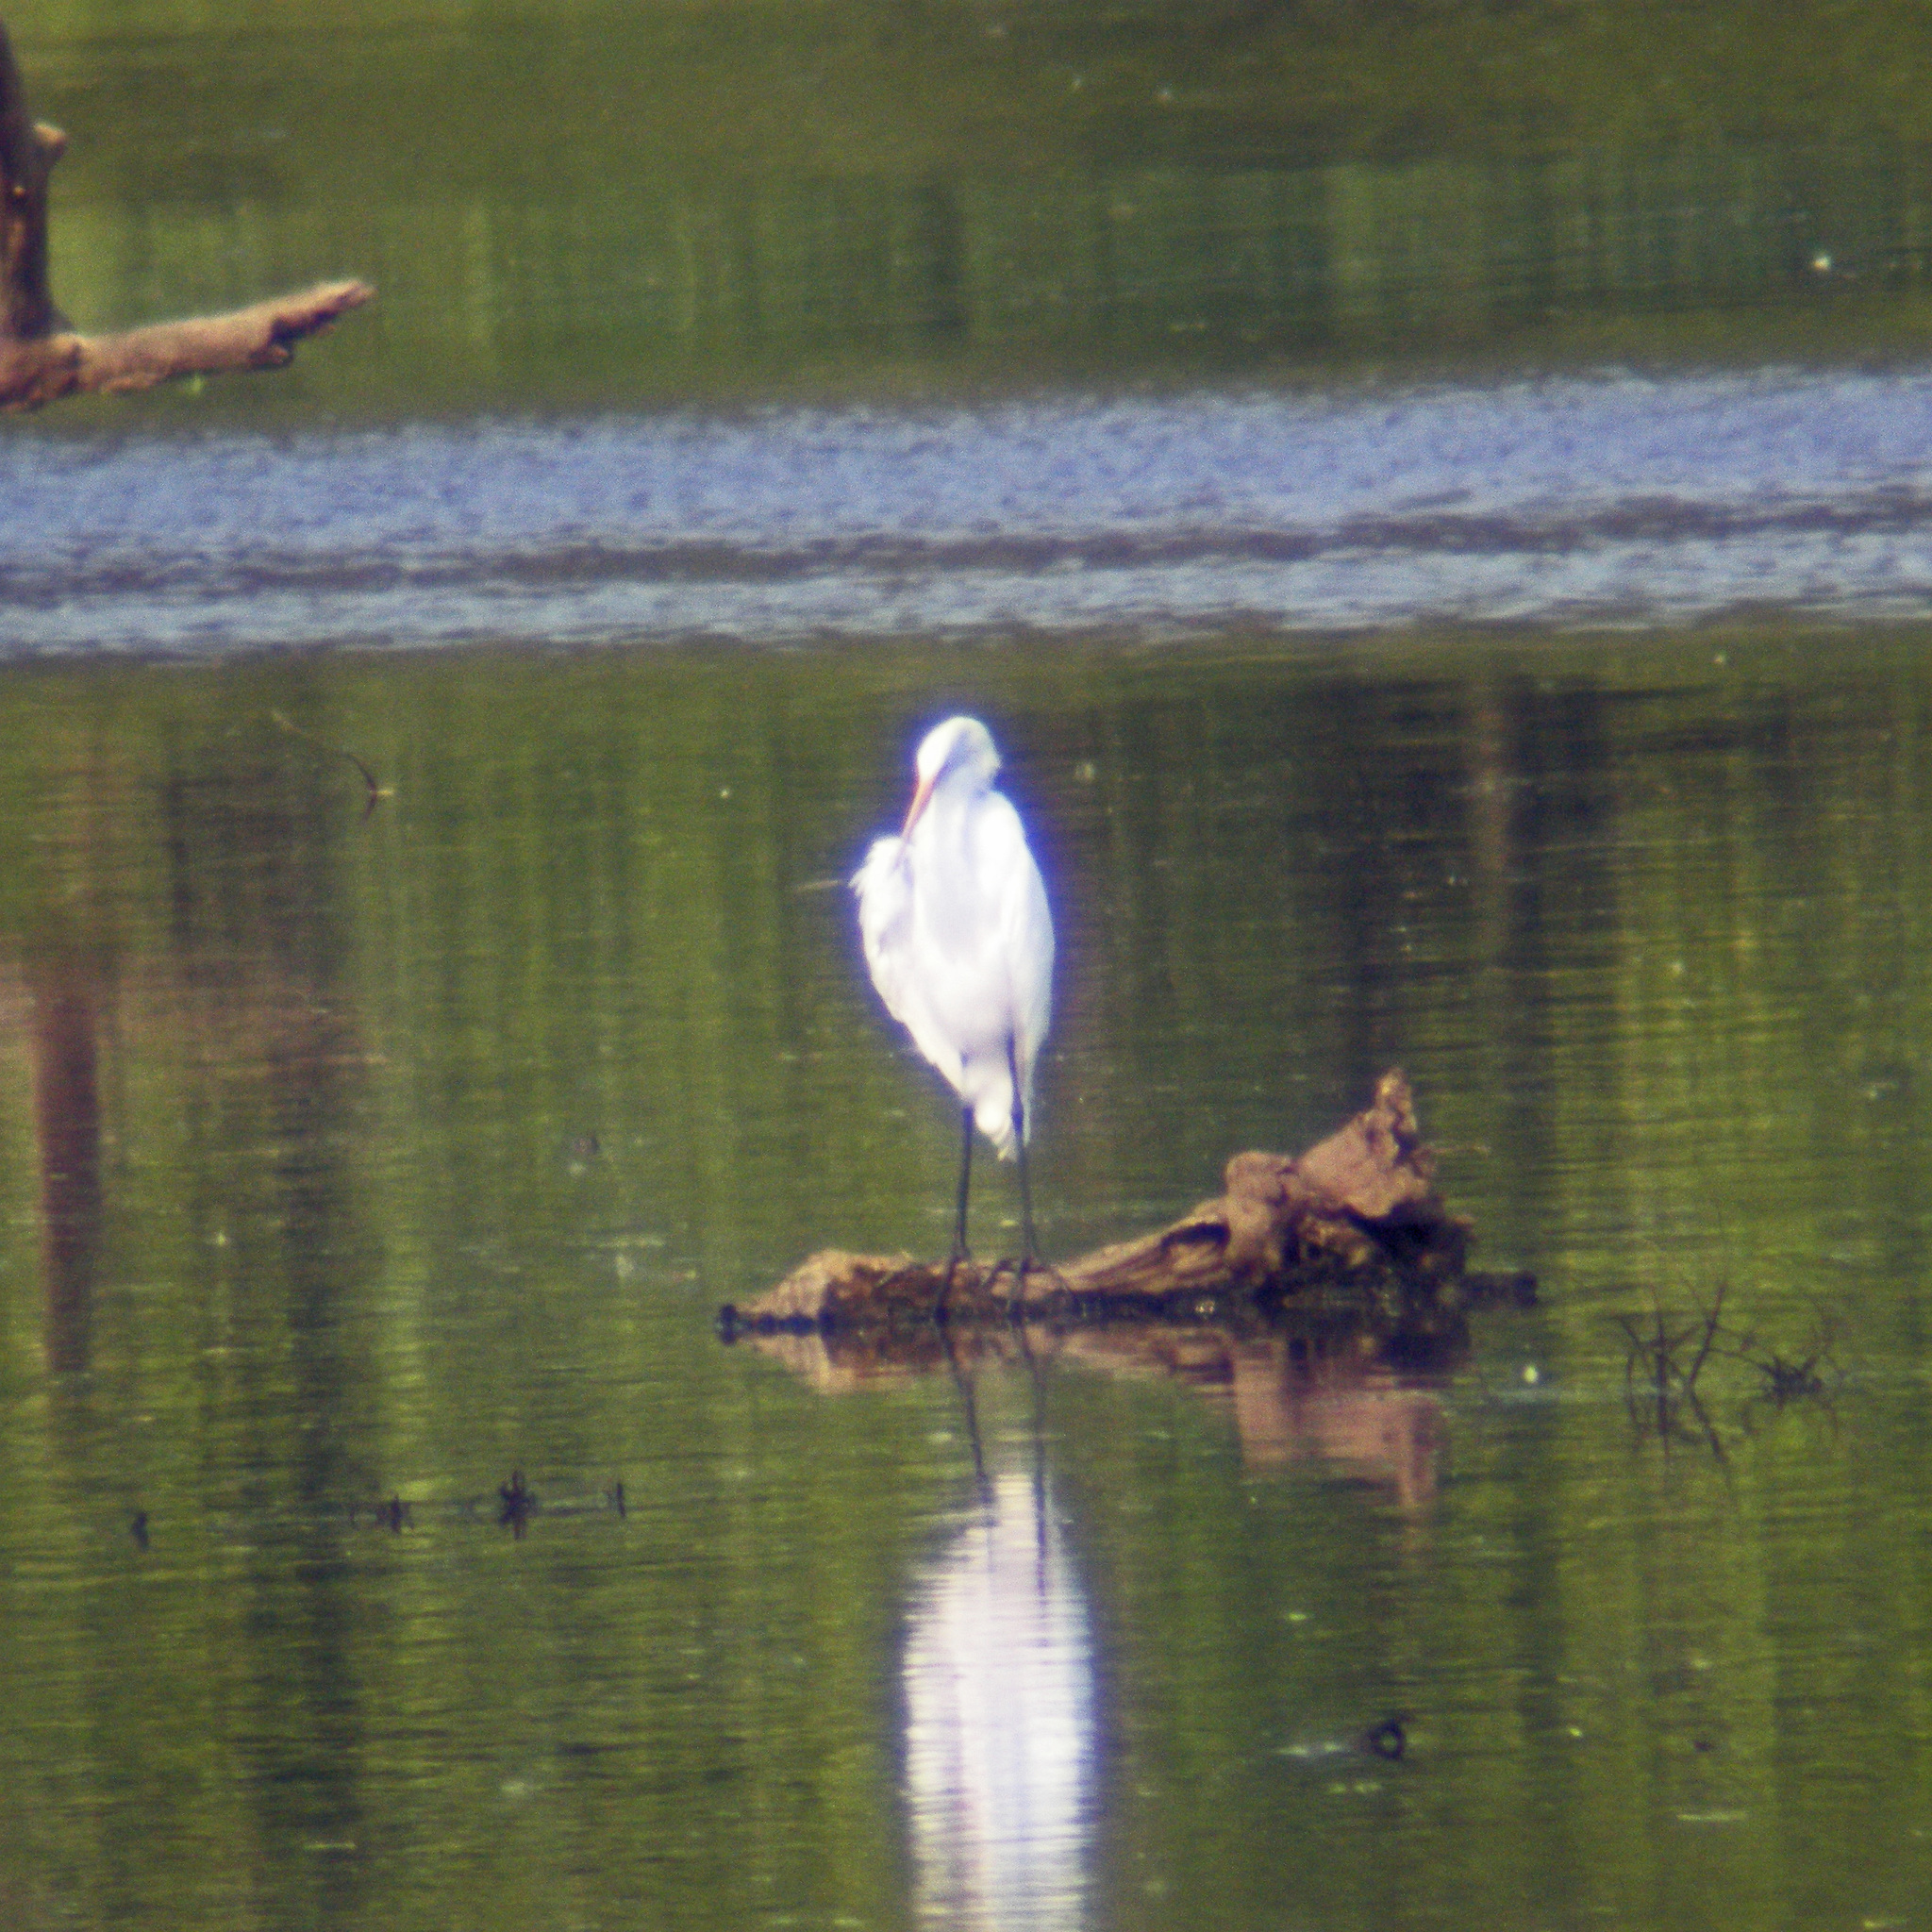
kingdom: Animalia
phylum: Chordata
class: Aves
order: Pelecaniformes
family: Ardeidae
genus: Ardea
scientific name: Ardea alba
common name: Great egret
